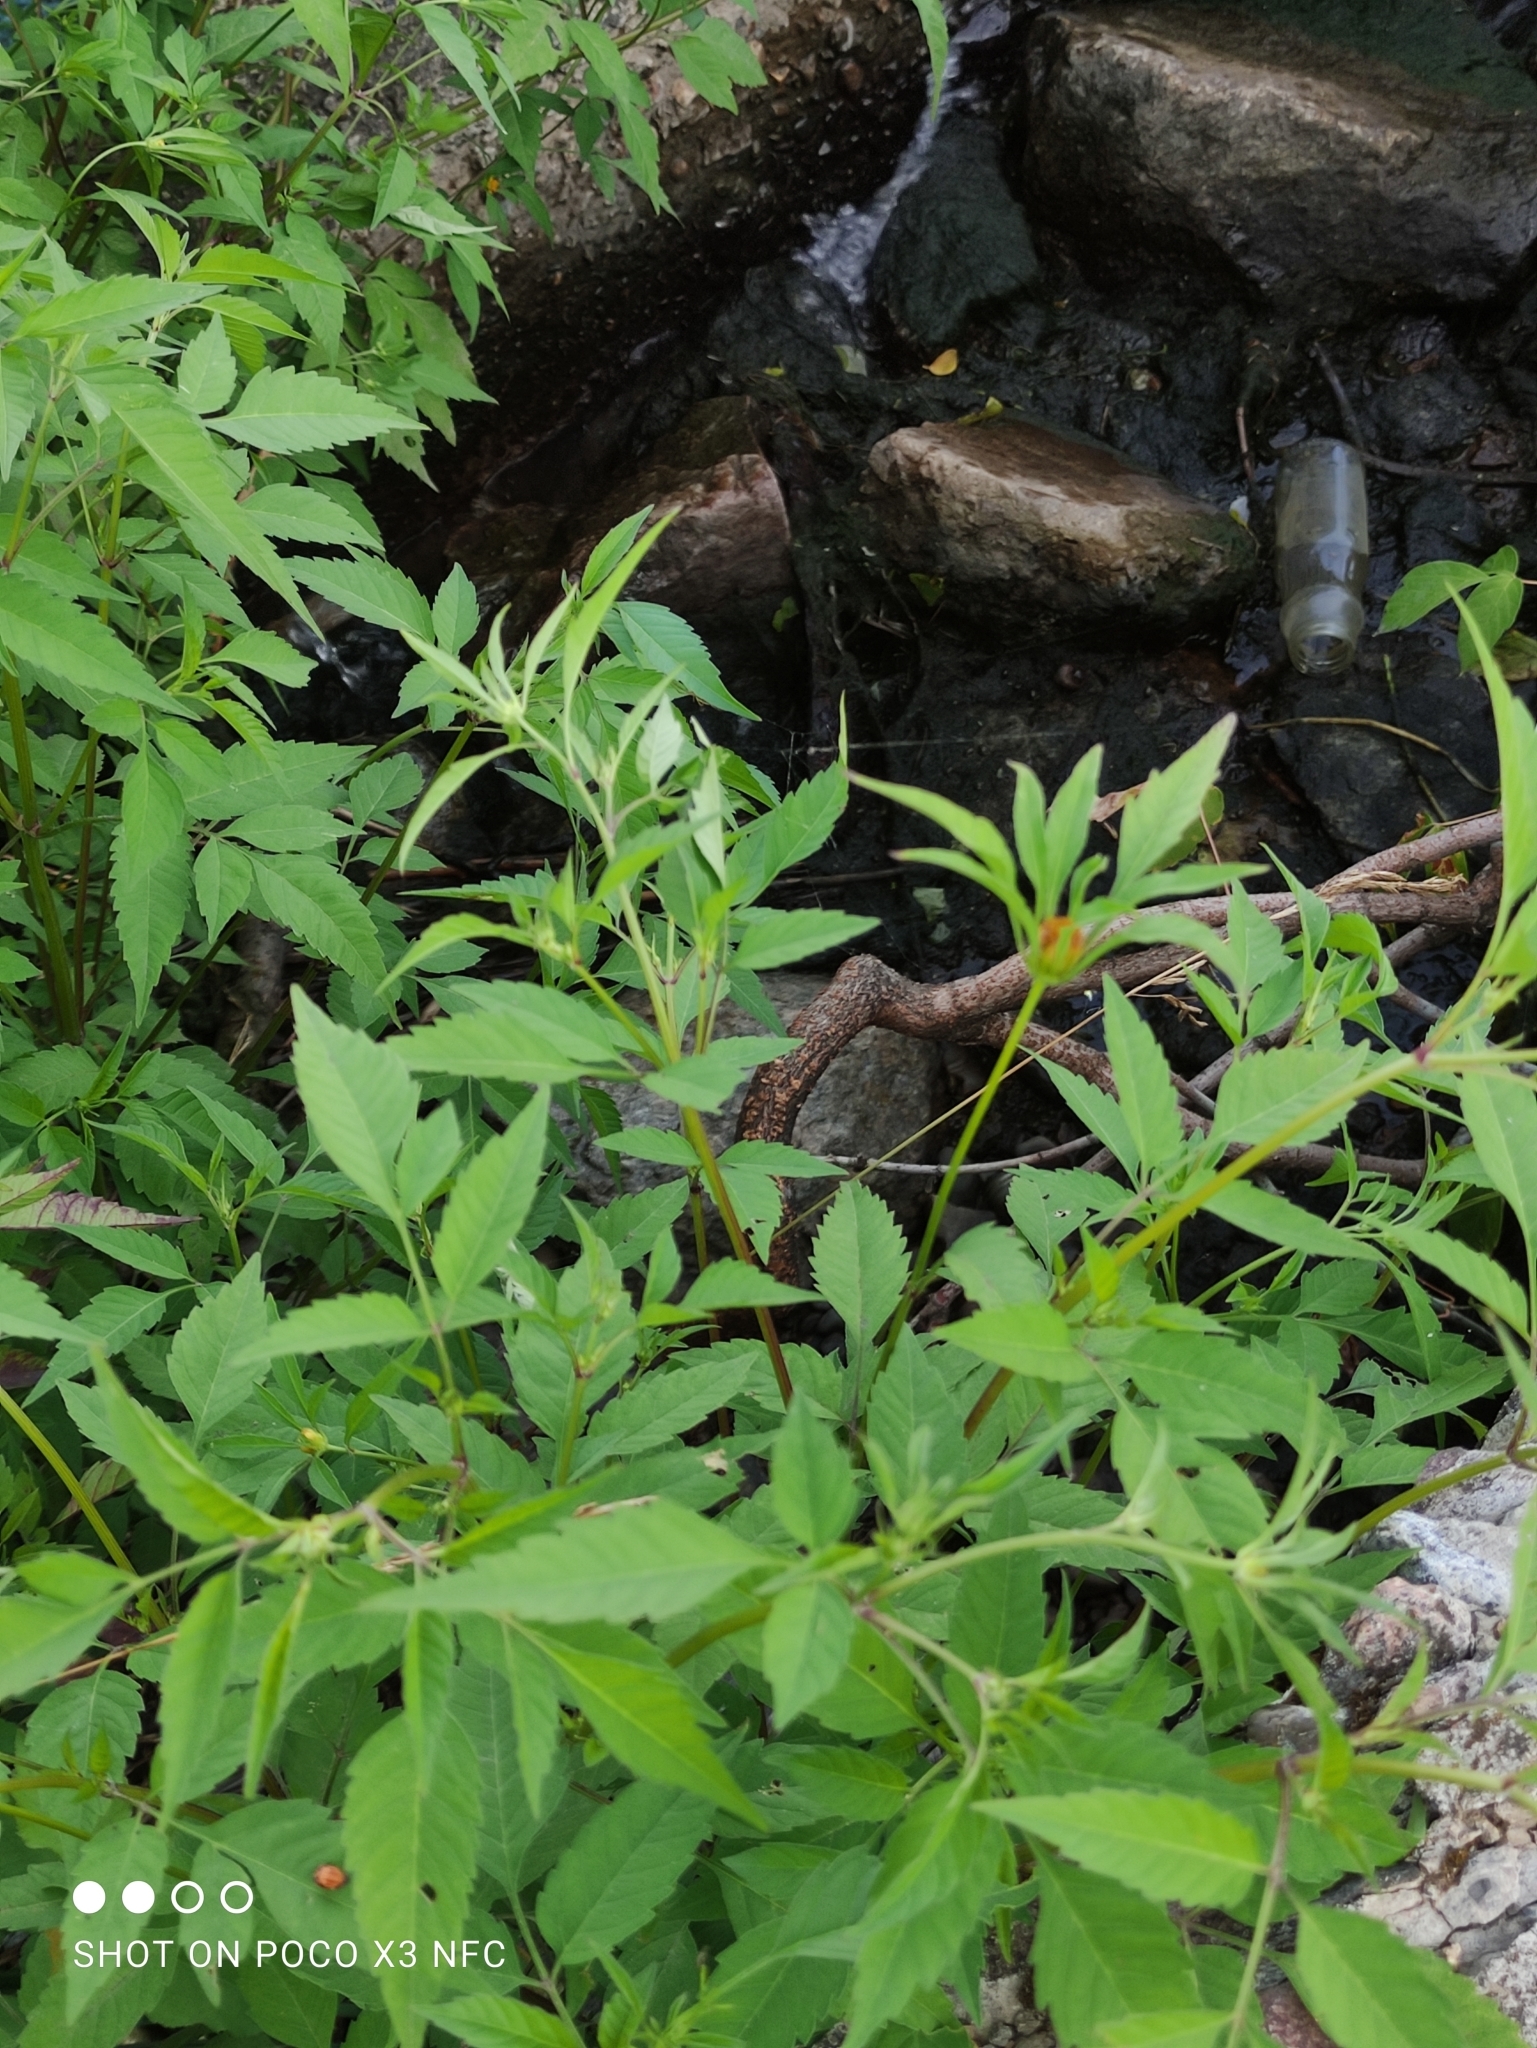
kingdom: Plantae
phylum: Tracheophyta
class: Magnoliopsida
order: Asterales
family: Asteraceae
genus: Bidens
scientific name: Bidens frondosa
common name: Beggarticks
